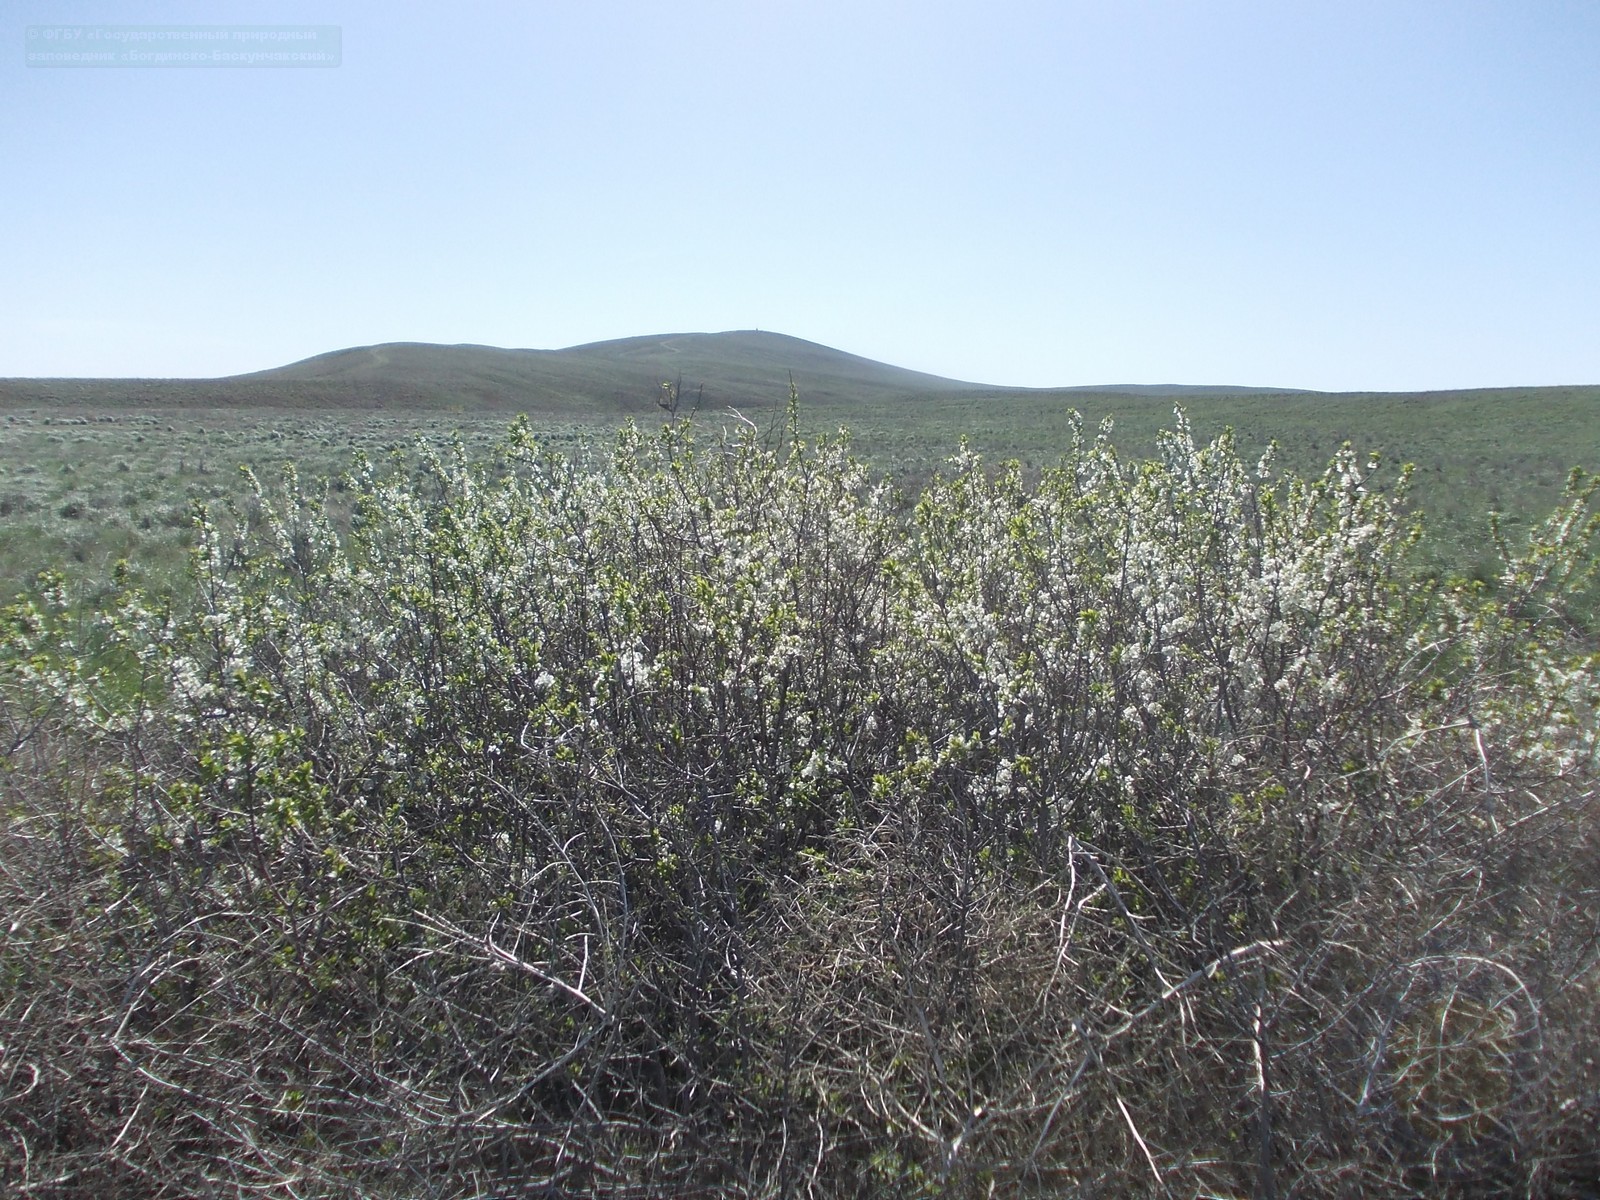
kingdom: Plantae
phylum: Tracheophyta
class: Magnoliopsida
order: Rosales
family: Rosaceae
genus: Prunus
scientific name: Prunus spinosa
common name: Blackthorn
